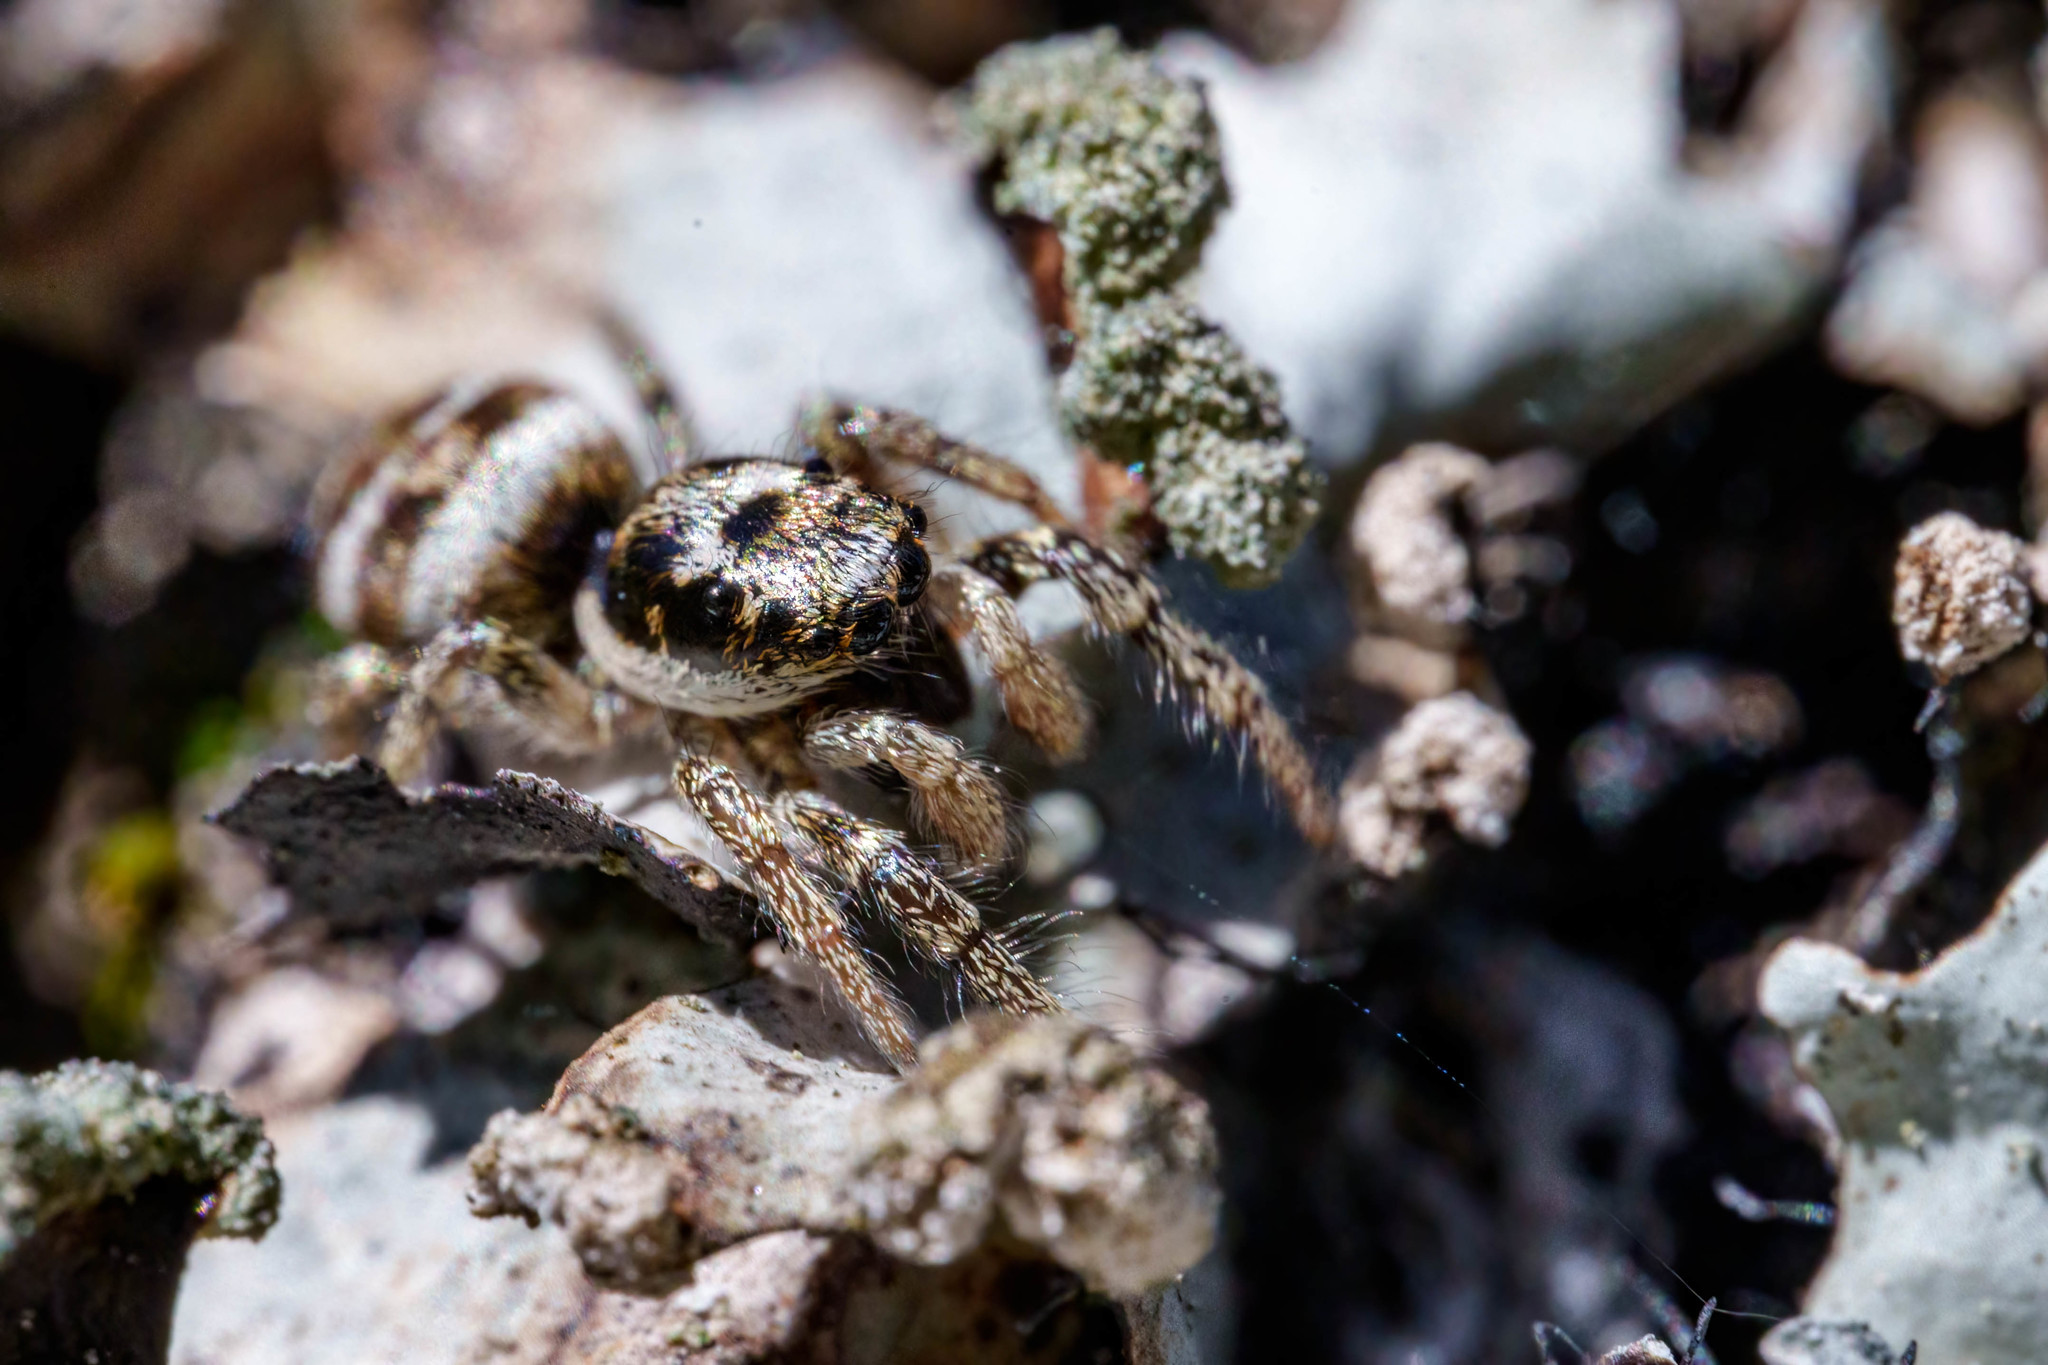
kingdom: Animalia
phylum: Arthropoda
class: Arachnida
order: Araneae
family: Salticidae
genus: Salticus
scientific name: Salticus scenicus
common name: Zebra jumper
